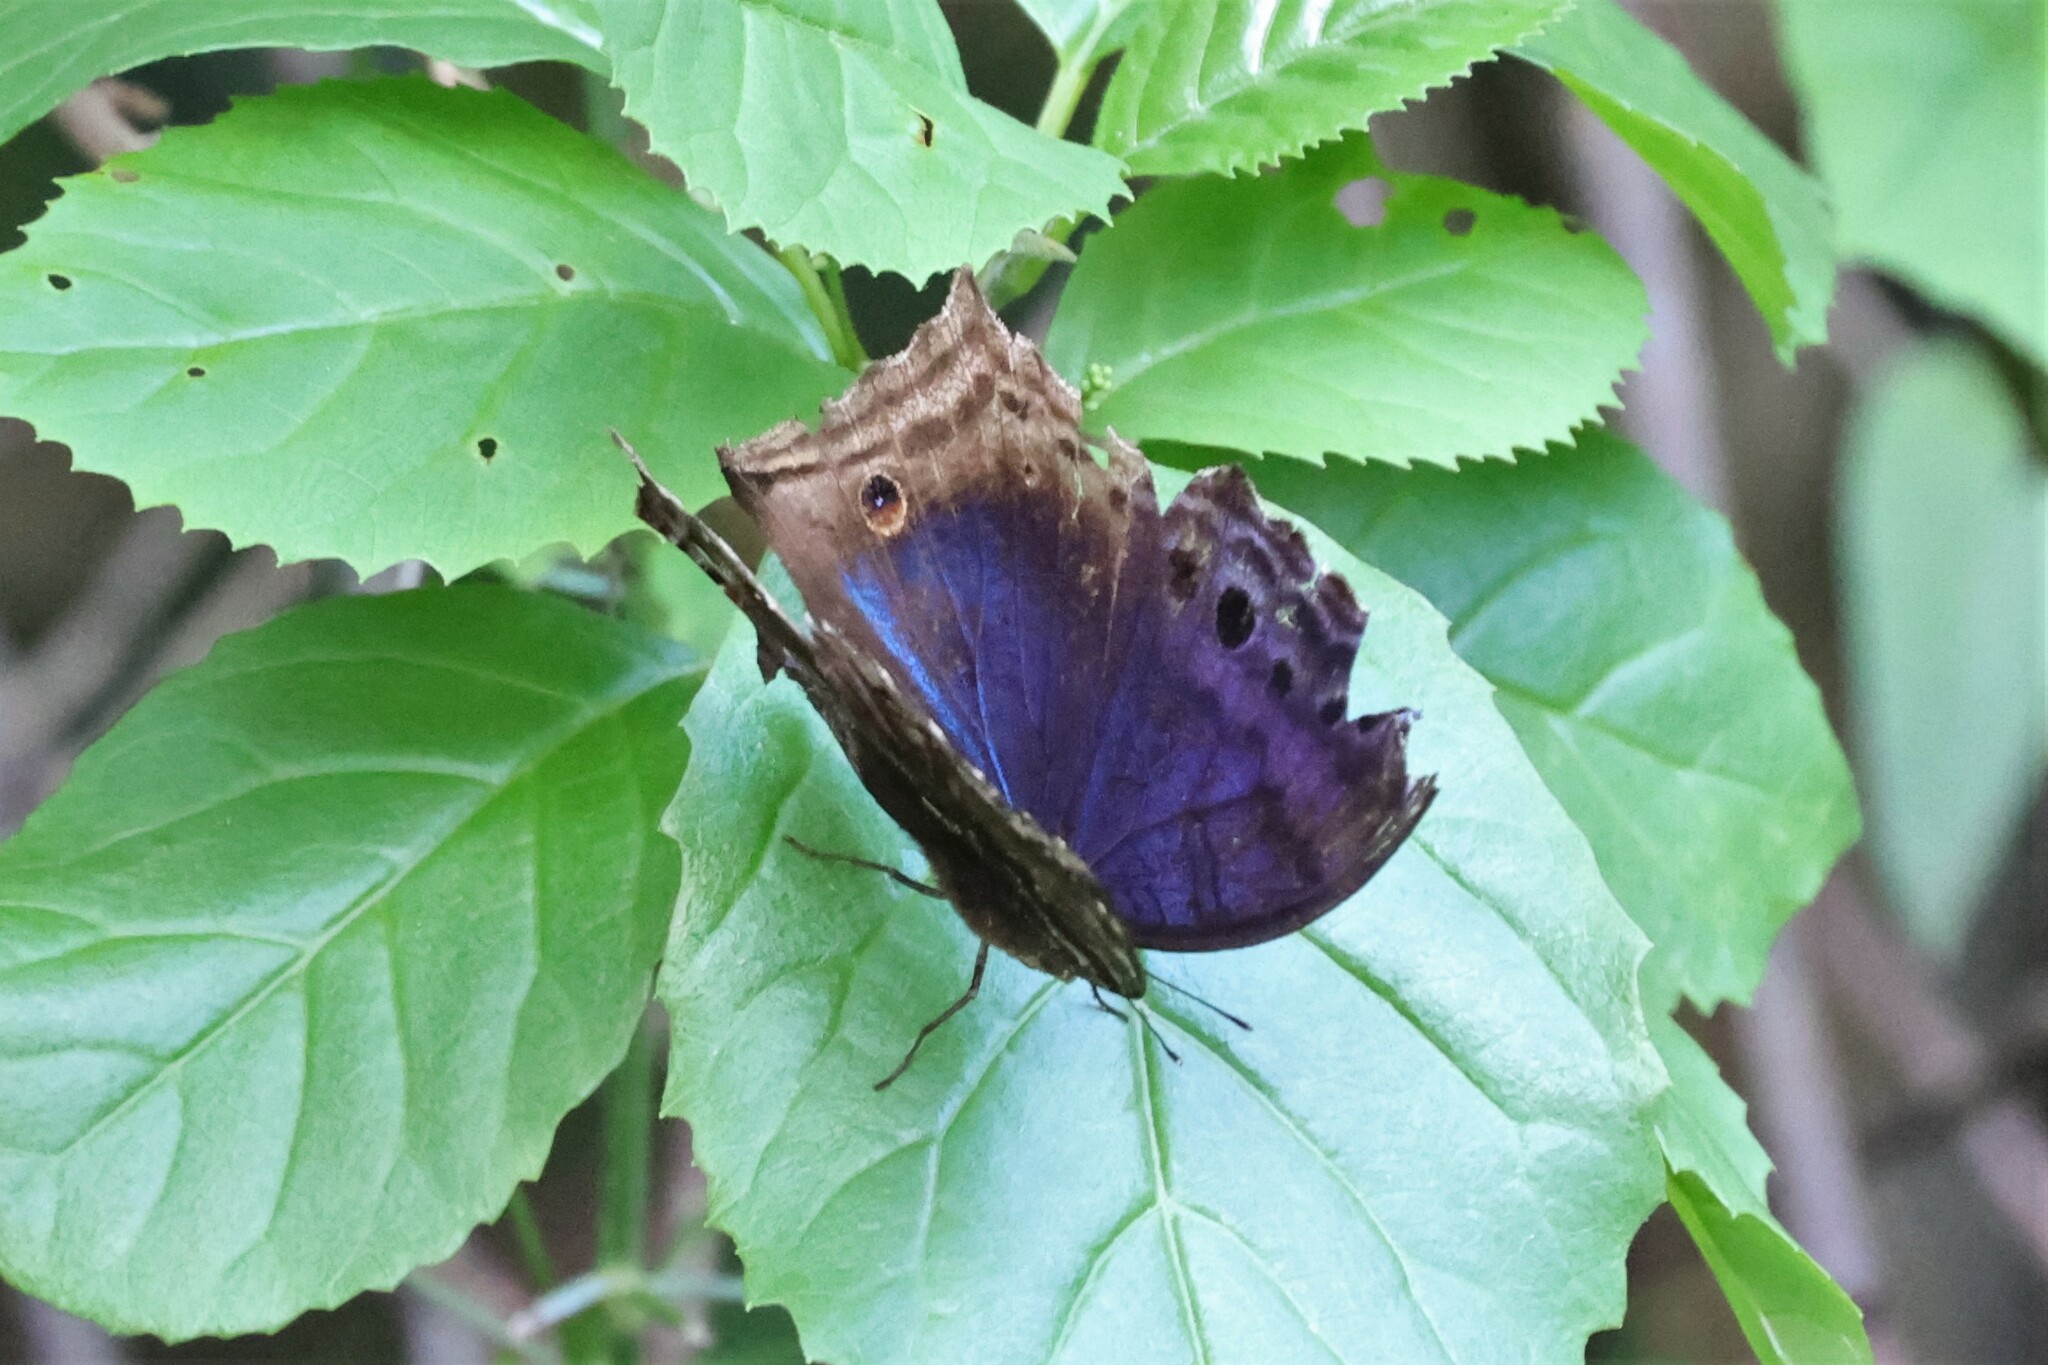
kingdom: Animalia
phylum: Arthropoda
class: Insecta
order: Lepidoptera
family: Nymphalidae
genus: Junonia
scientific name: Junonia
